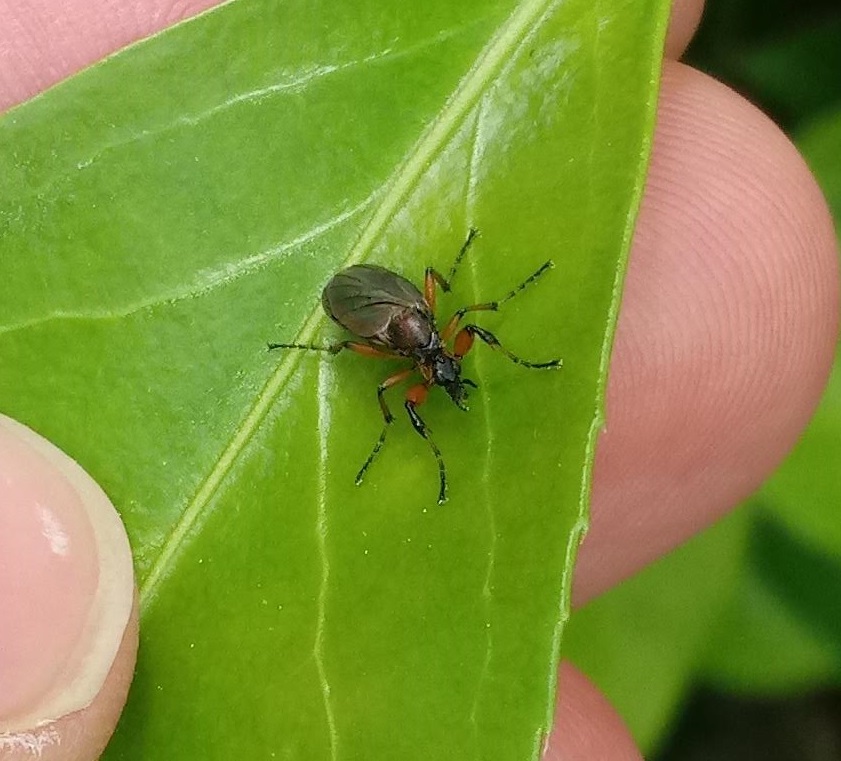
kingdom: Animalia
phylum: Arthropoda
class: Insecta
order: Diptera
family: Bibionidae
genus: Bibio
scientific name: Bibio articulatus
